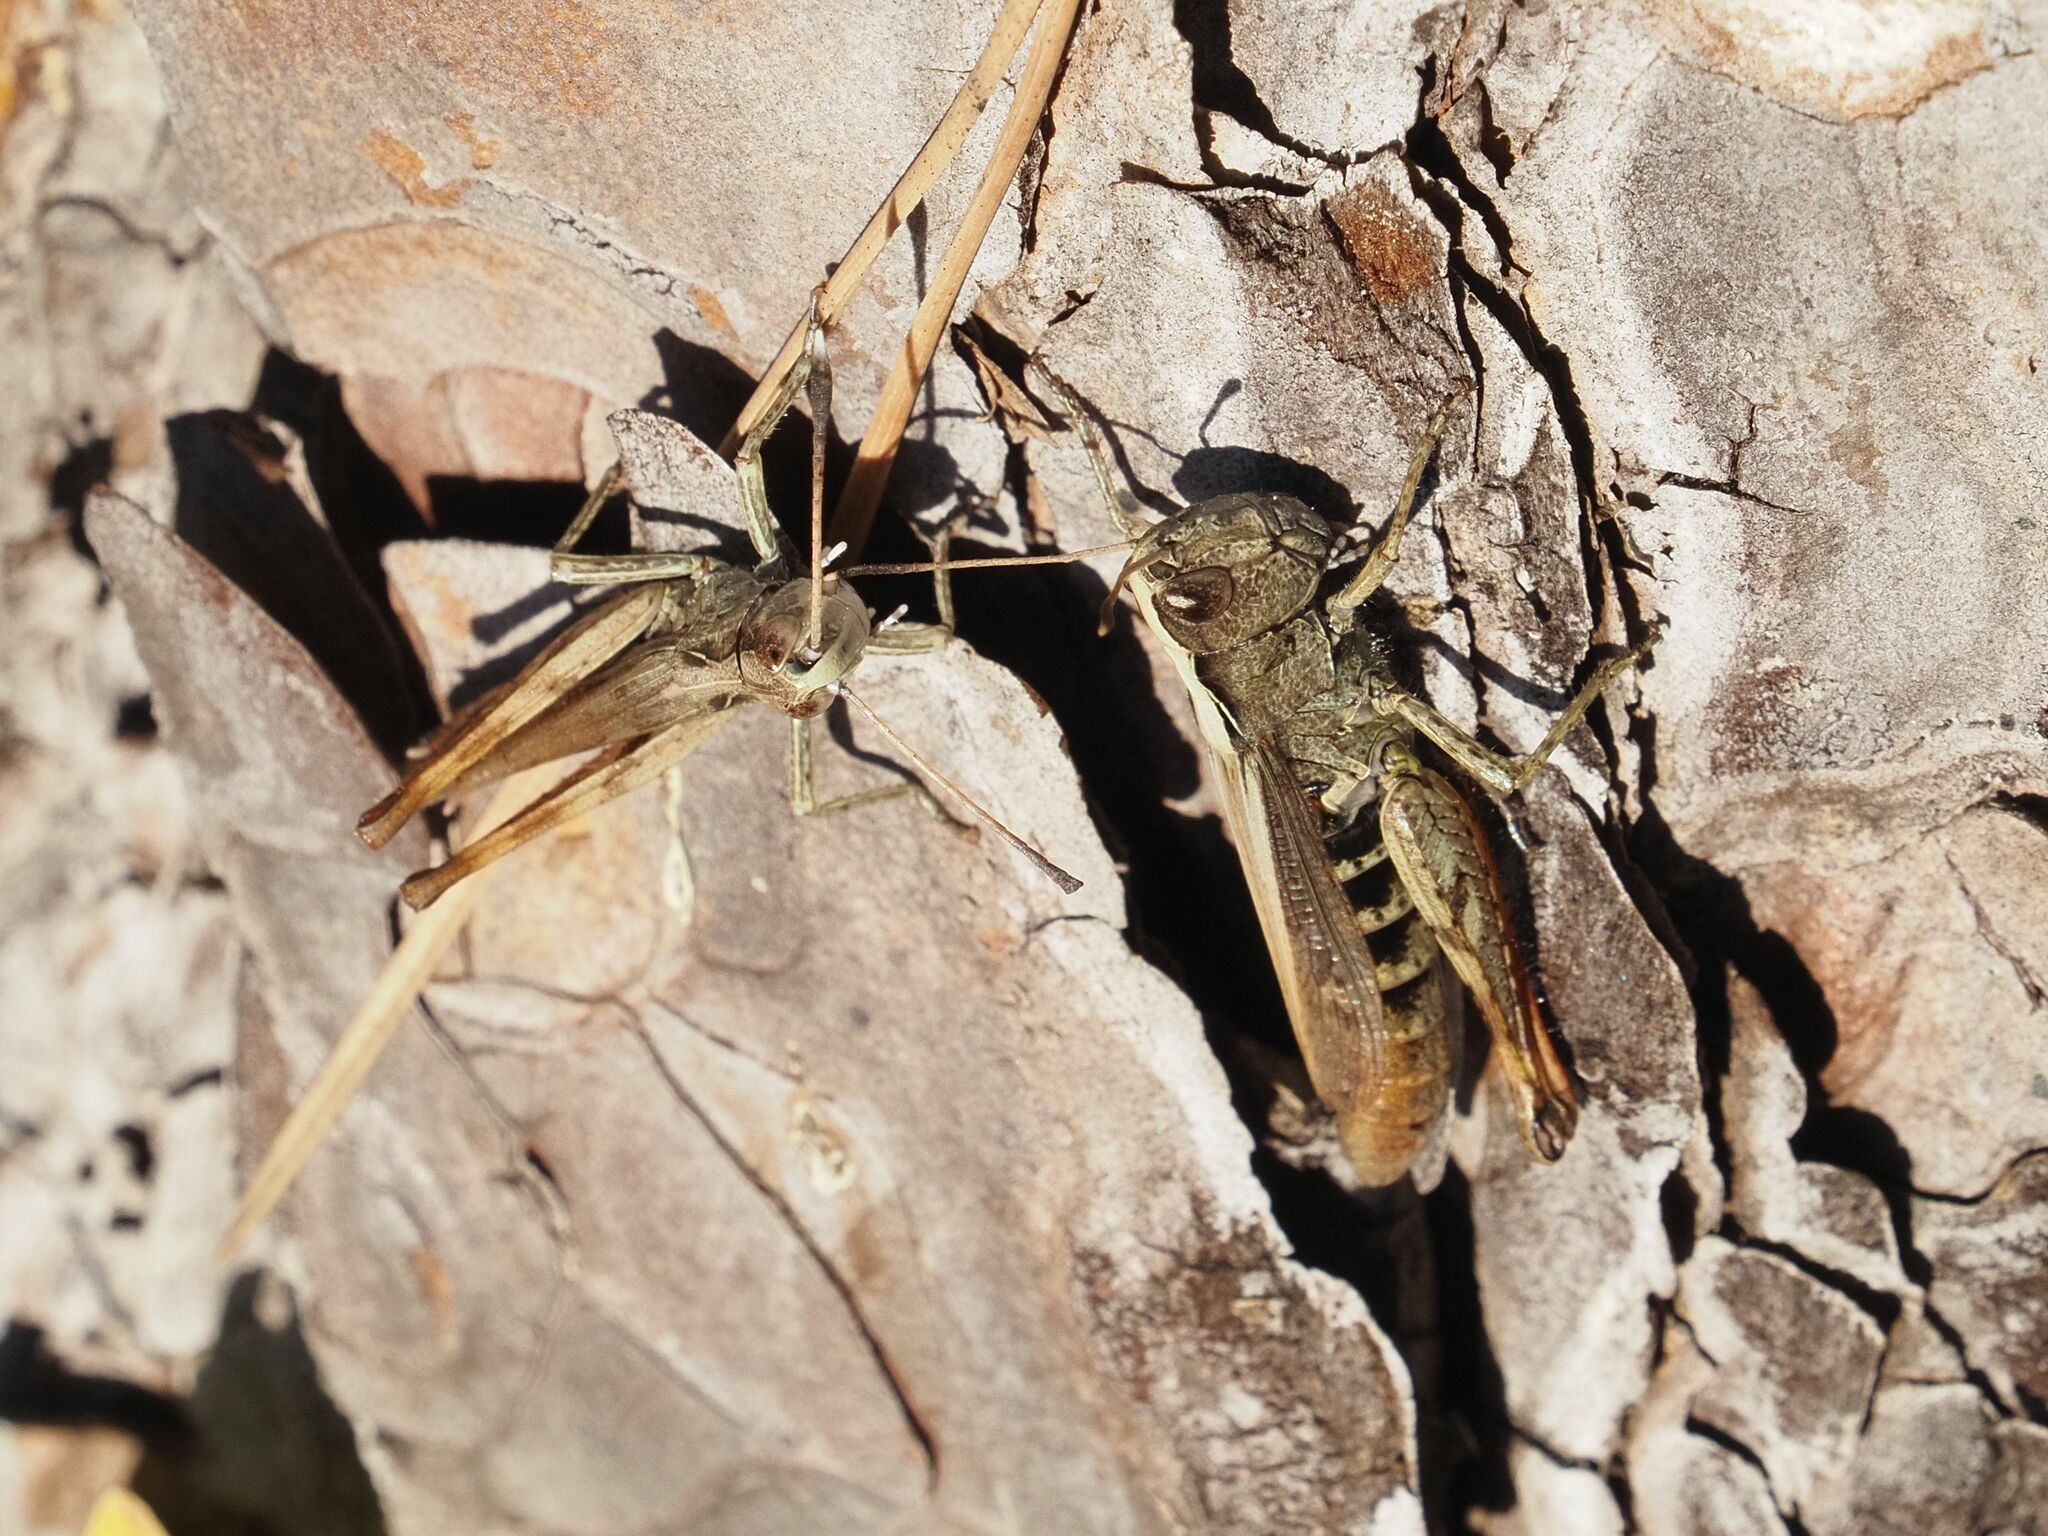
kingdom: Animalia
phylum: Arthropoda
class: Insecta
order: Orthoptera
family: Acrididae
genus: Gomphocerippus
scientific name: Gomphocerippus rufus
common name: Rufous grasshopper
